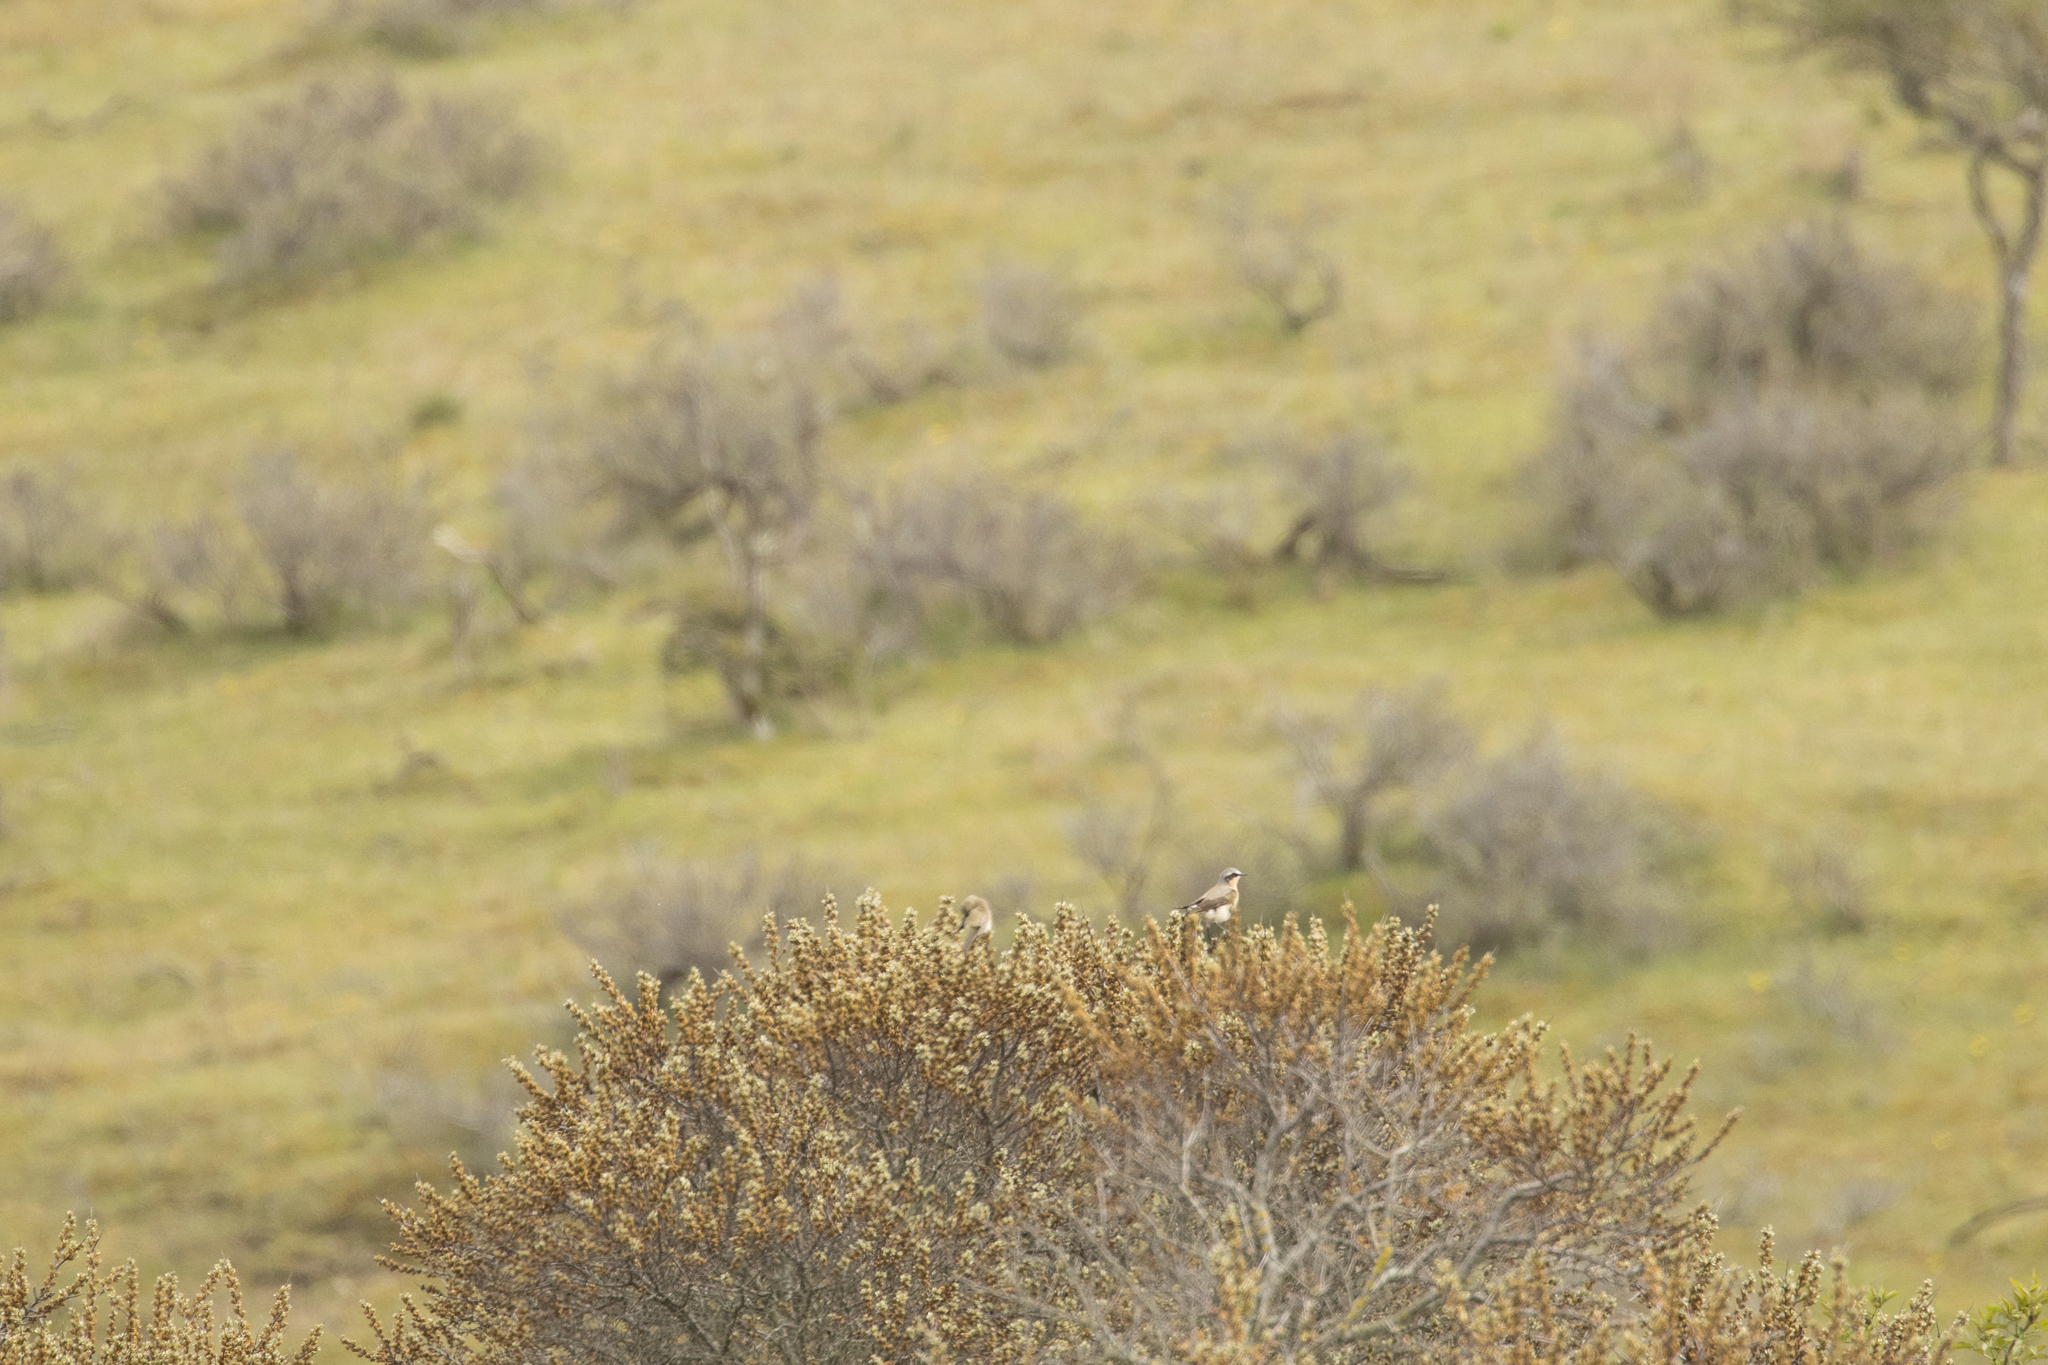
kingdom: Animalia
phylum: Chordata
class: Aves
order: Passeriformes
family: Muscicapidae
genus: Oenanthe
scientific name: Oenanthe oenanthe
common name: Northern wheatear
